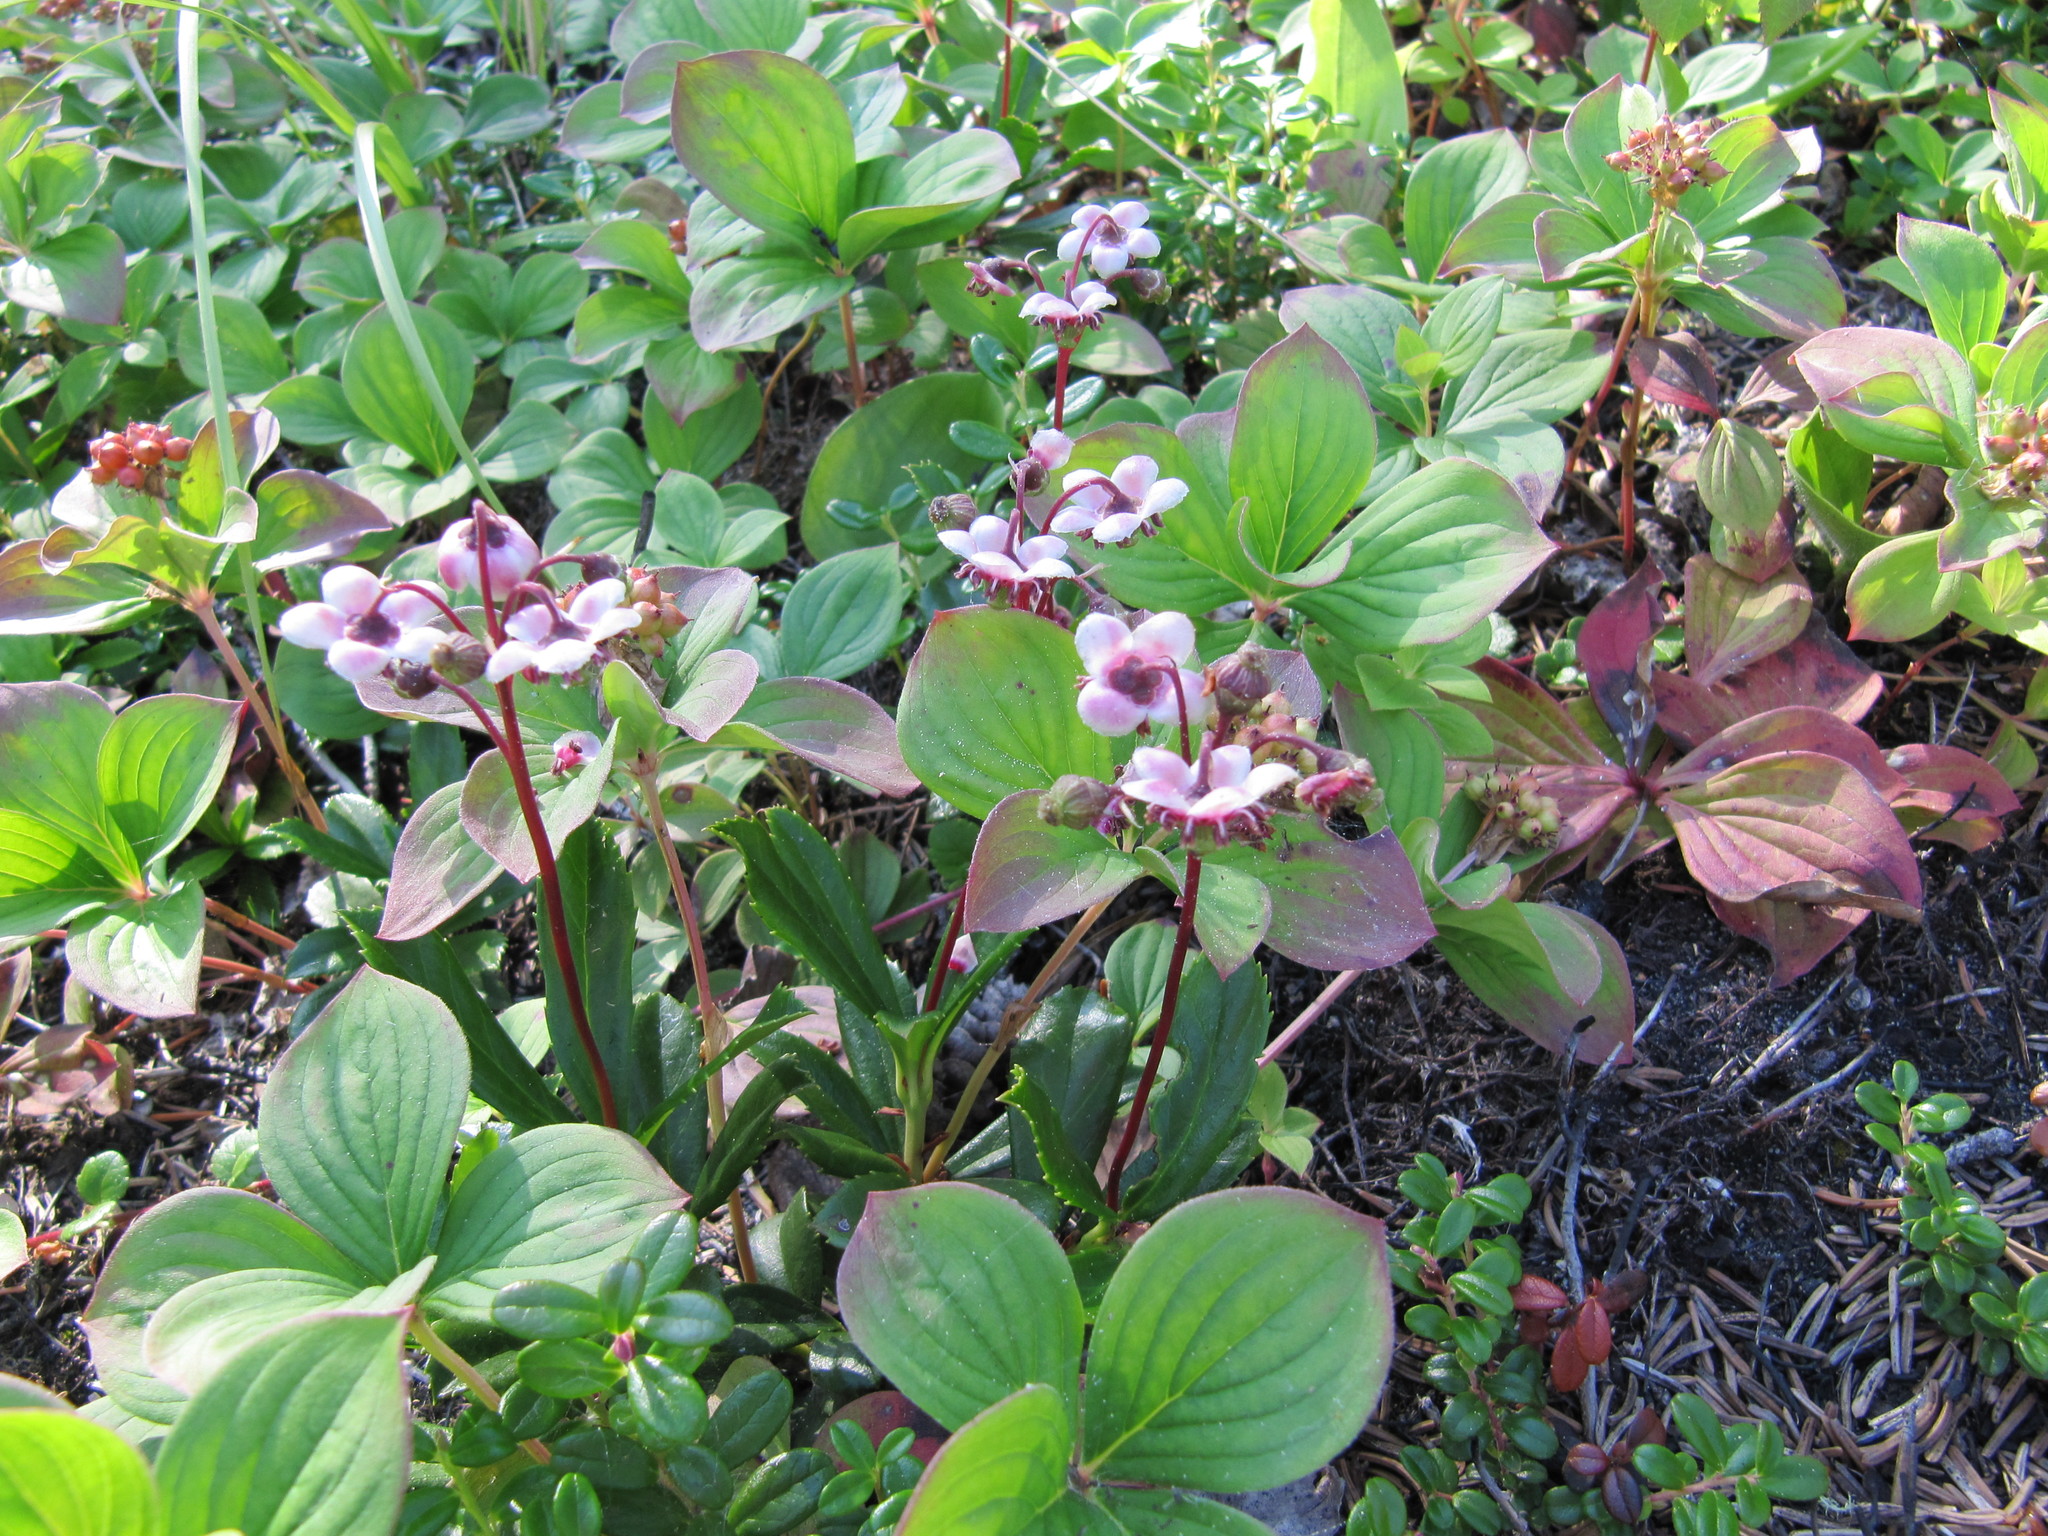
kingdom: Plantae
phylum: Tracheophyta
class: Magnoliopsida
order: Ericales
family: Ericaceae
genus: Chimaphila
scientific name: Chimaphila umbellata
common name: Pipsissewa
